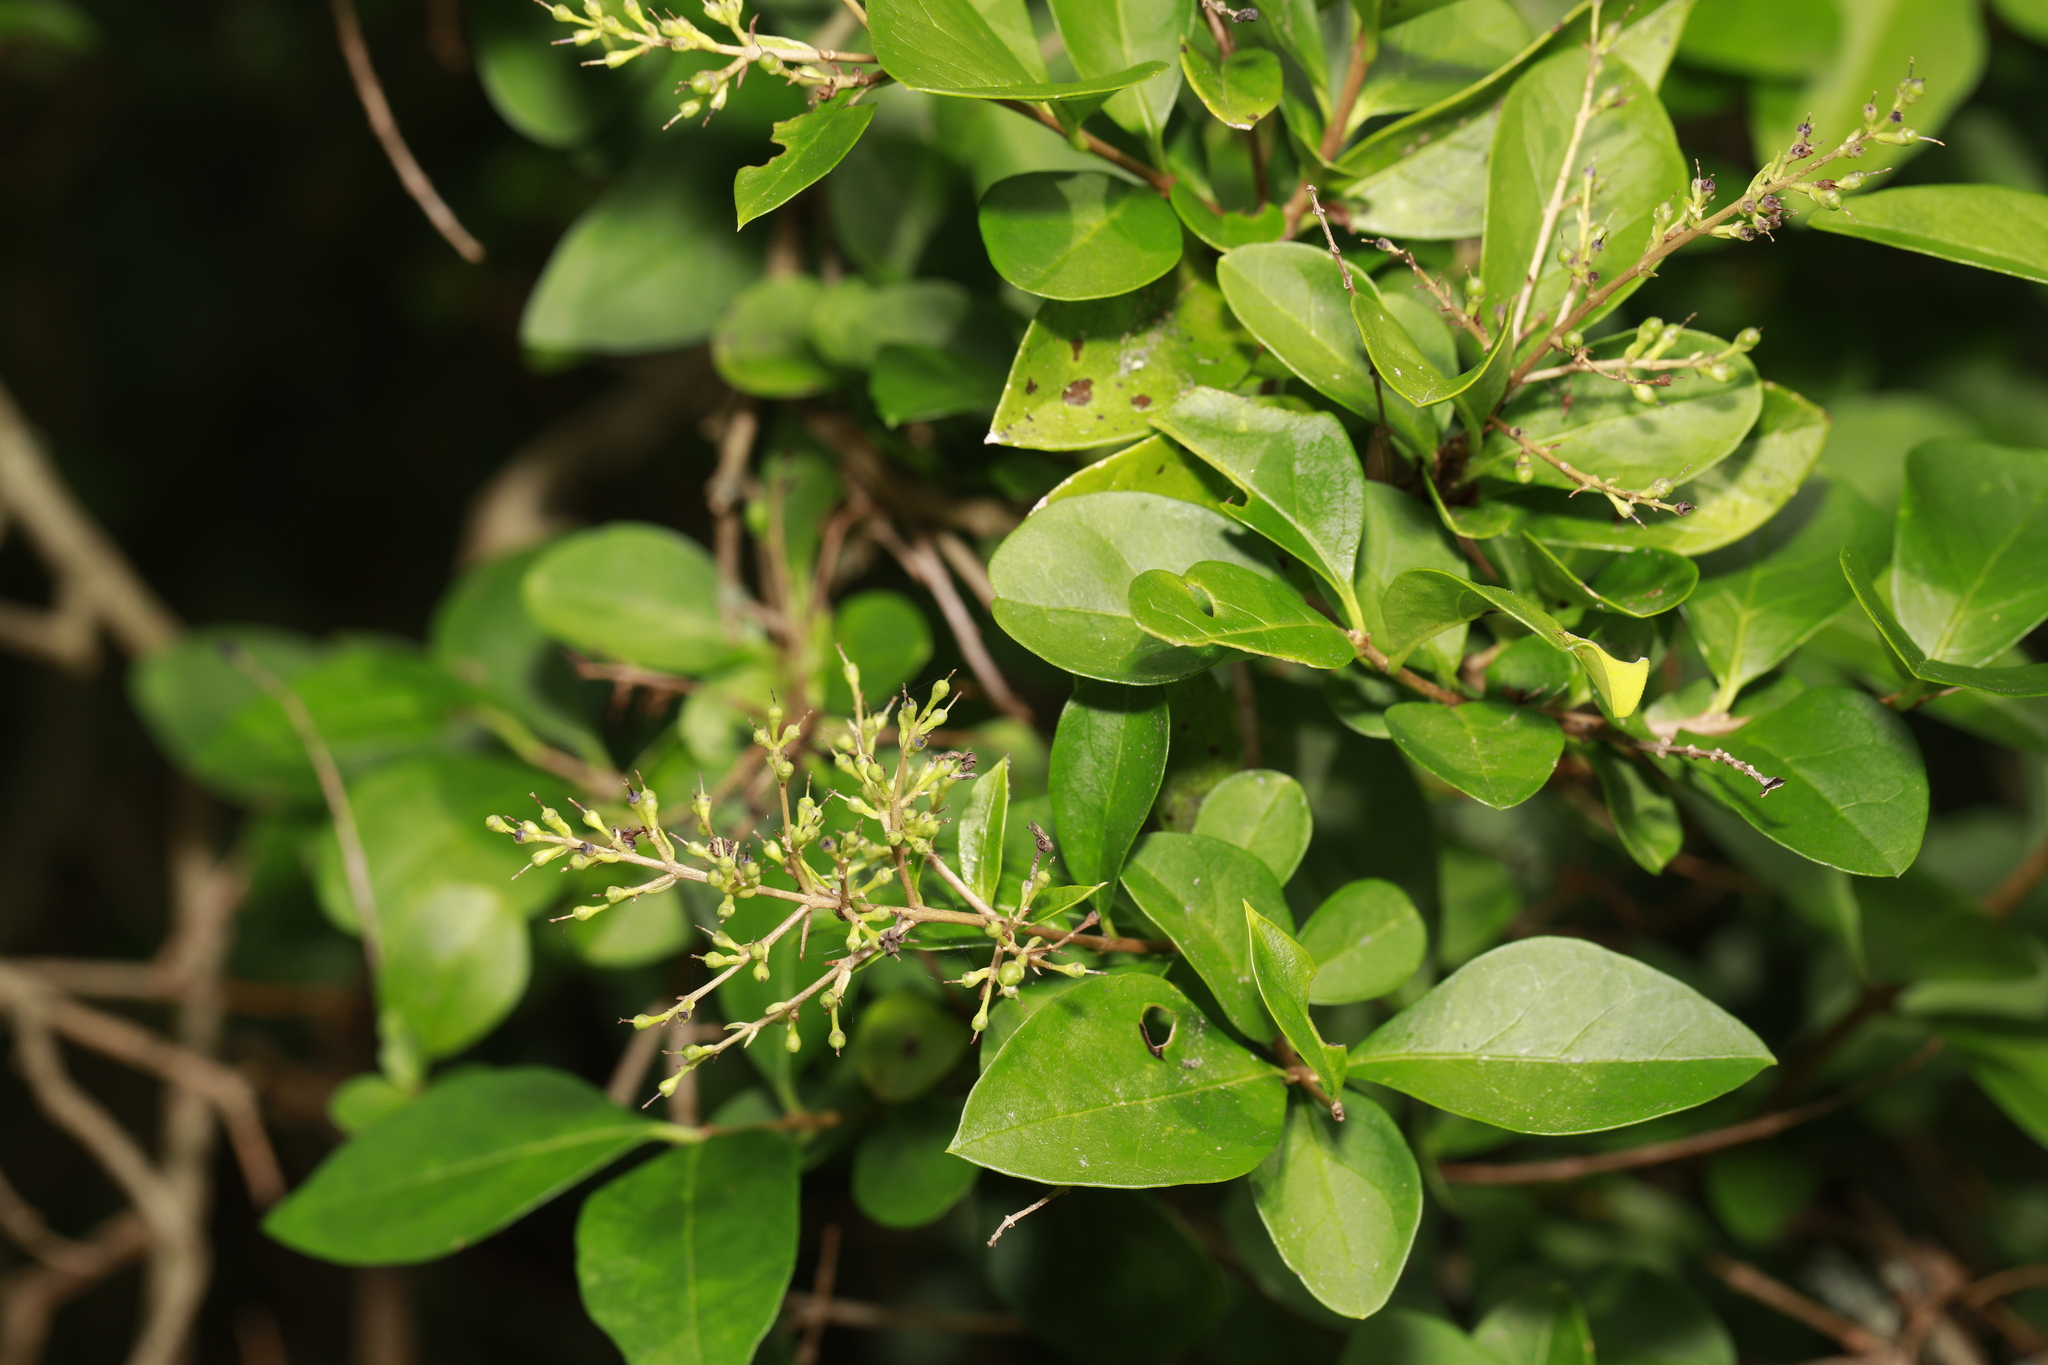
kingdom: Plantae
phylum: Tracheophyta
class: Magnoliopsida
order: Lamiales
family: Oleaceae
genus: Ligustrum
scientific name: Ligustrum ovalifolium
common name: California privet
